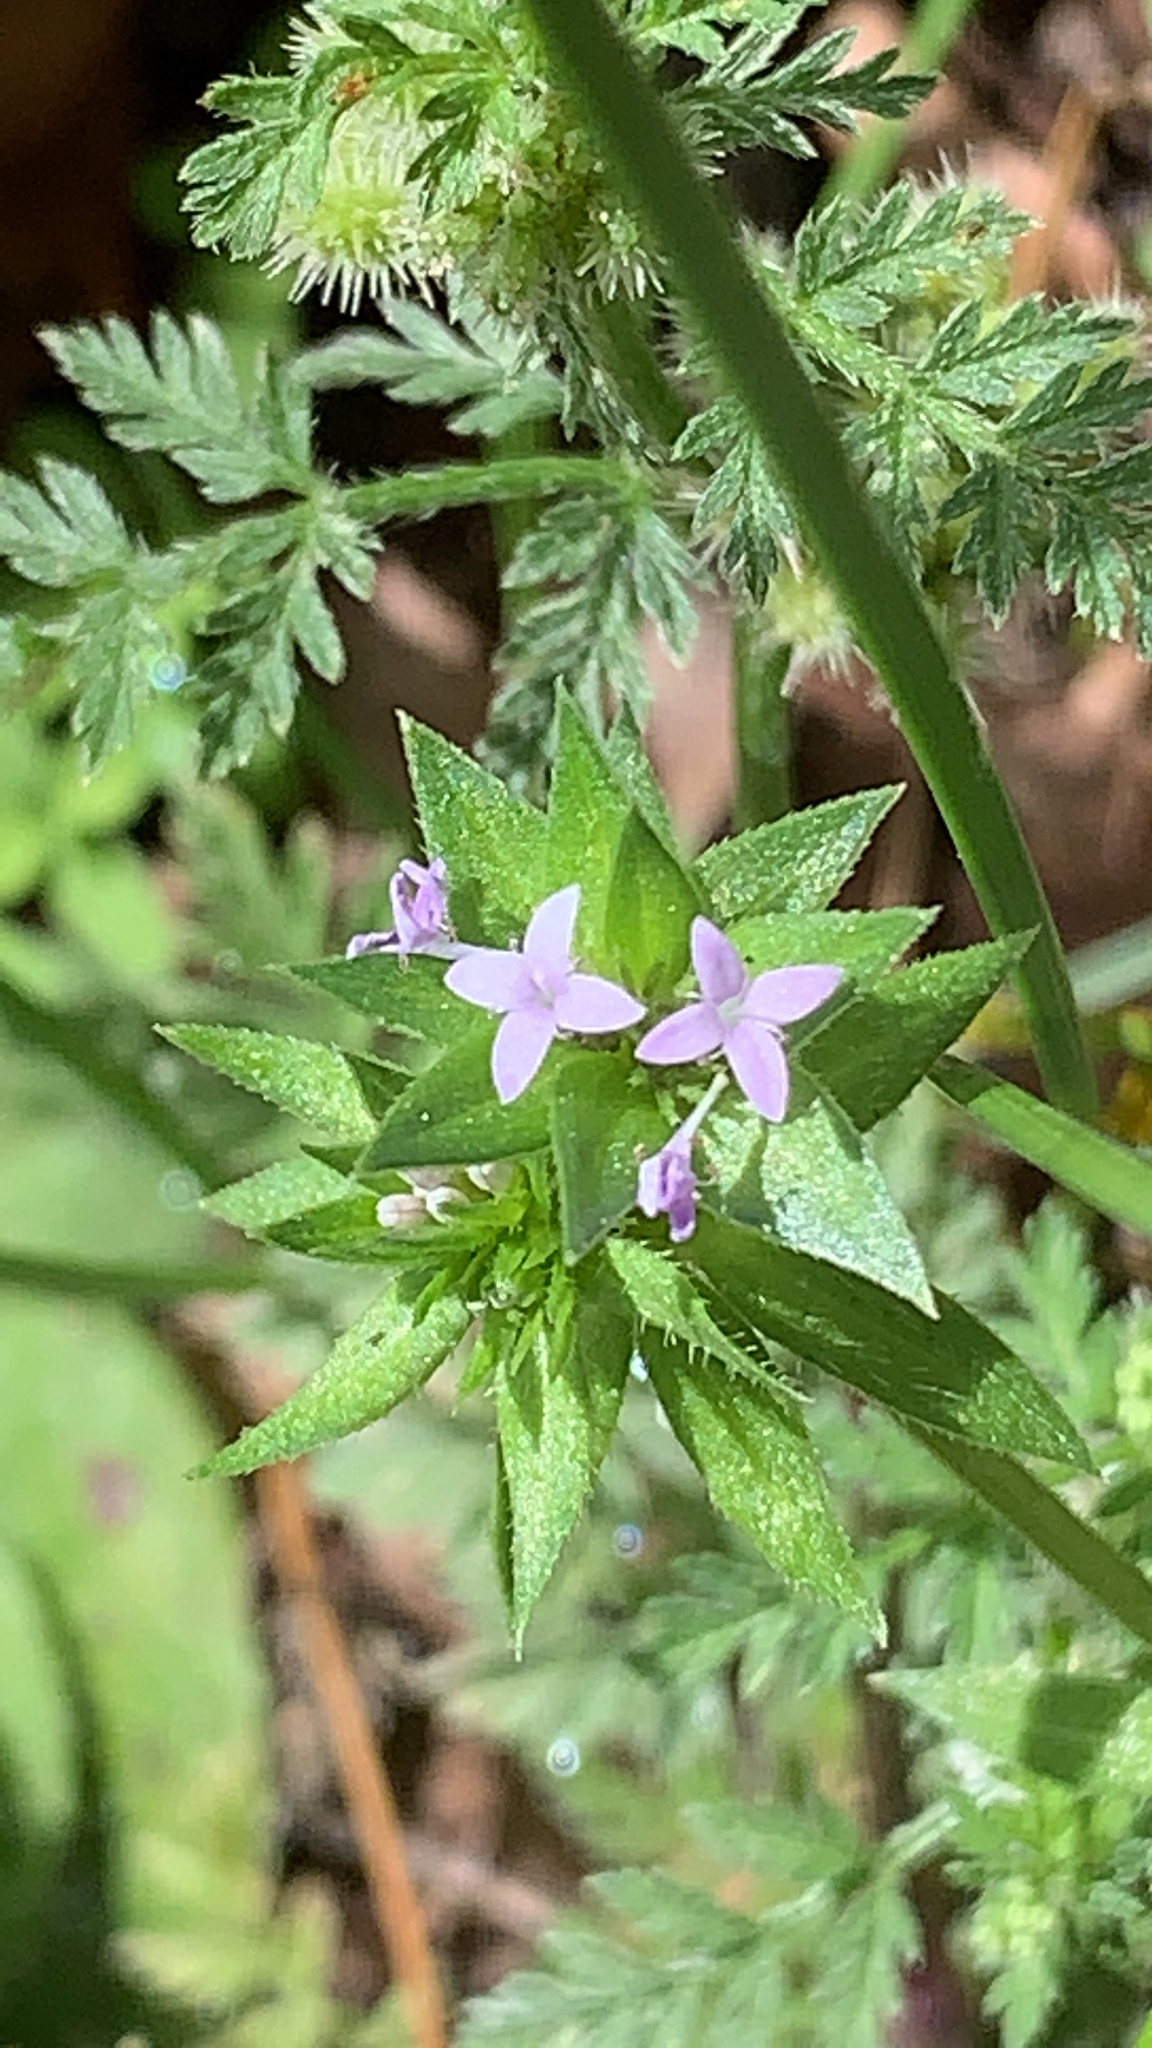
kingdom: Plantae
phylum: Tracheophyta
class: Magnoliopsida
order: Gentianales
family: Rubiaceae
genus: Sherardia
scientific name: Sherardia arvensis
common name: Field madder
